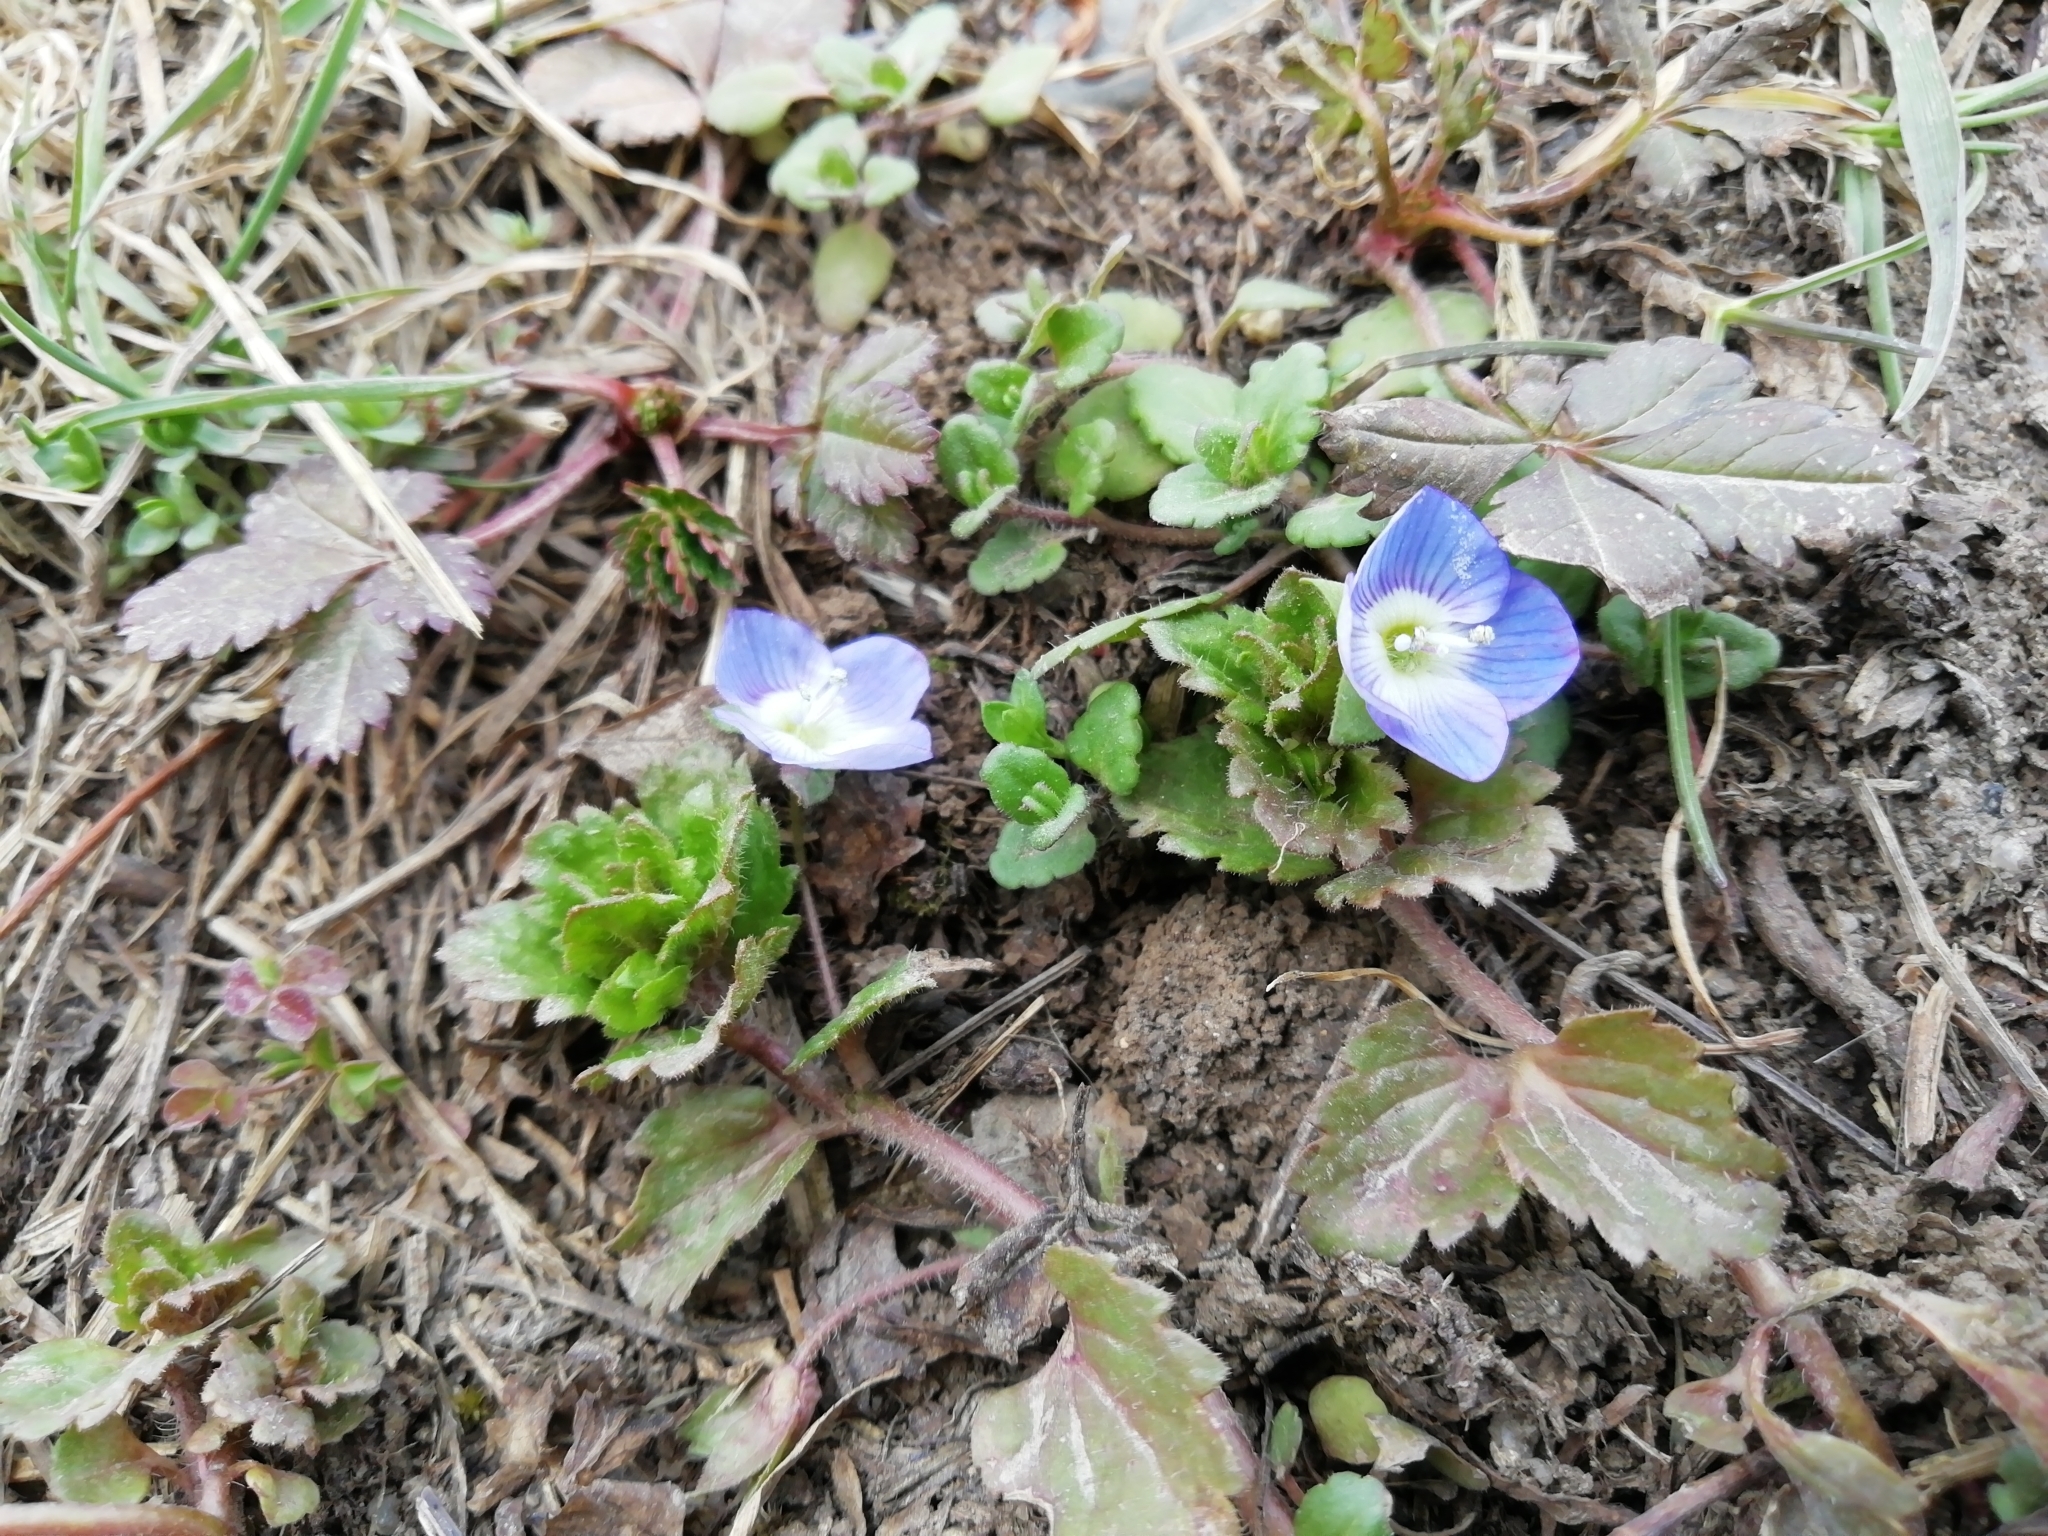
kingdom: Plantae
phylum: Tracheophyta
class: Magnoliopsida
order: Lamiales
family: Plantaginaceae
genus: Veronica
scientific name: Veronica persica
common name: Common field-speedwell
